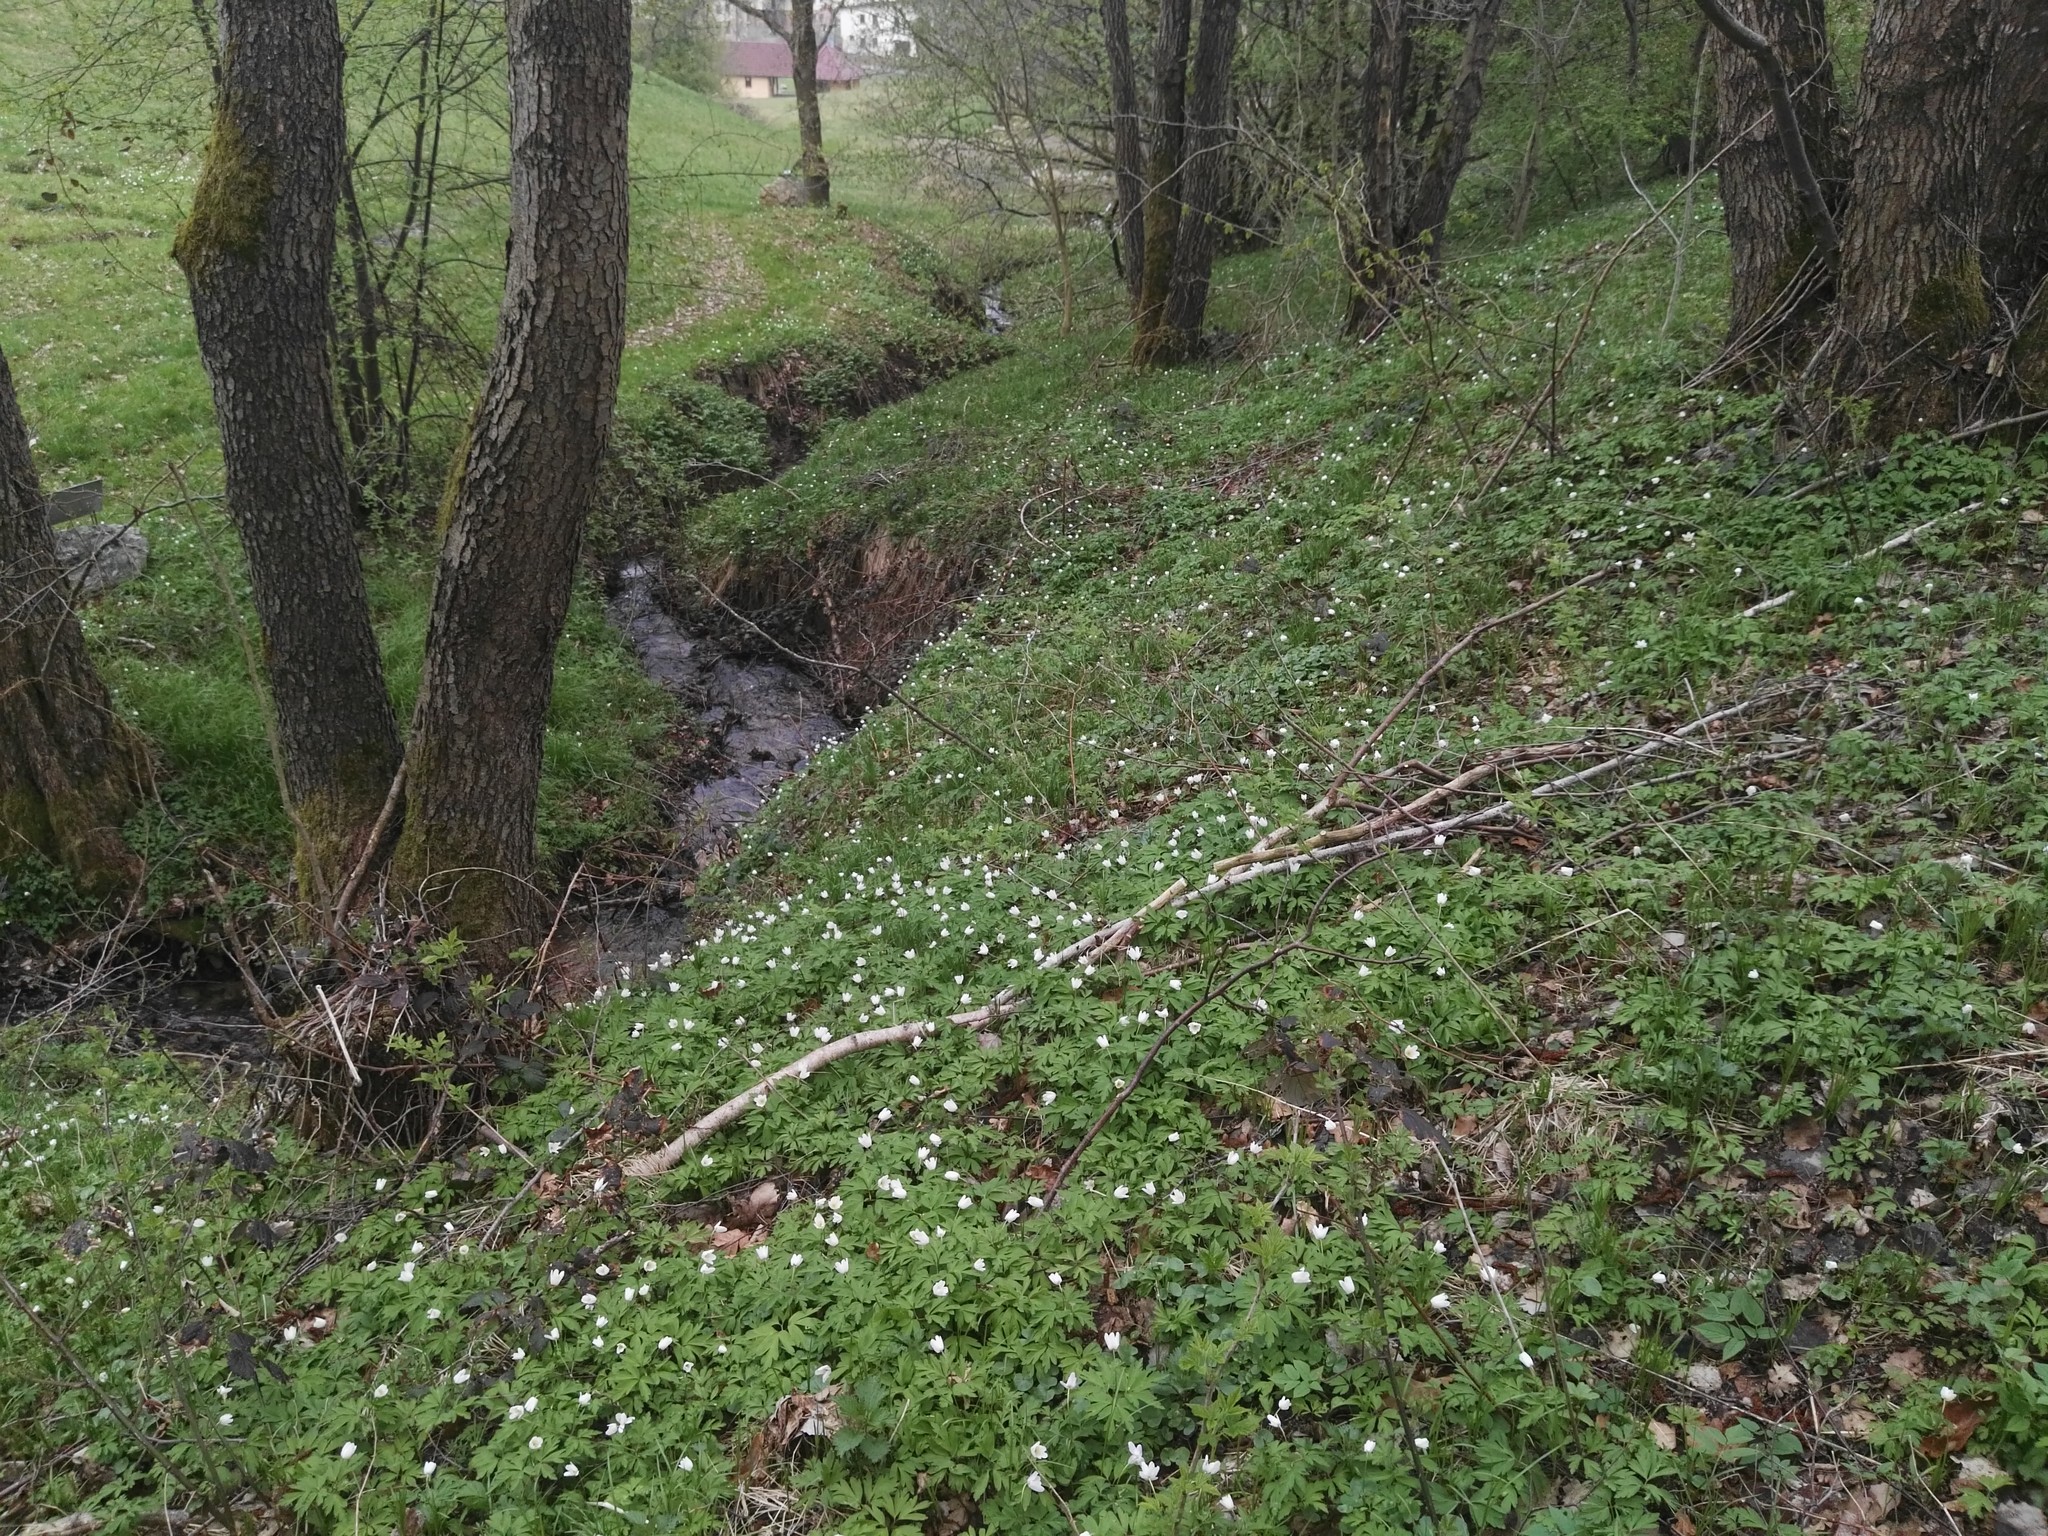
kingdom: Plantae
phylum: Tracheophyta
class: Magnoliopsida
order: Ranunculales
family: Ranunculaceae
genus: Anemone
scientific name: Anemone nemorosa
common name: Wood anemone
